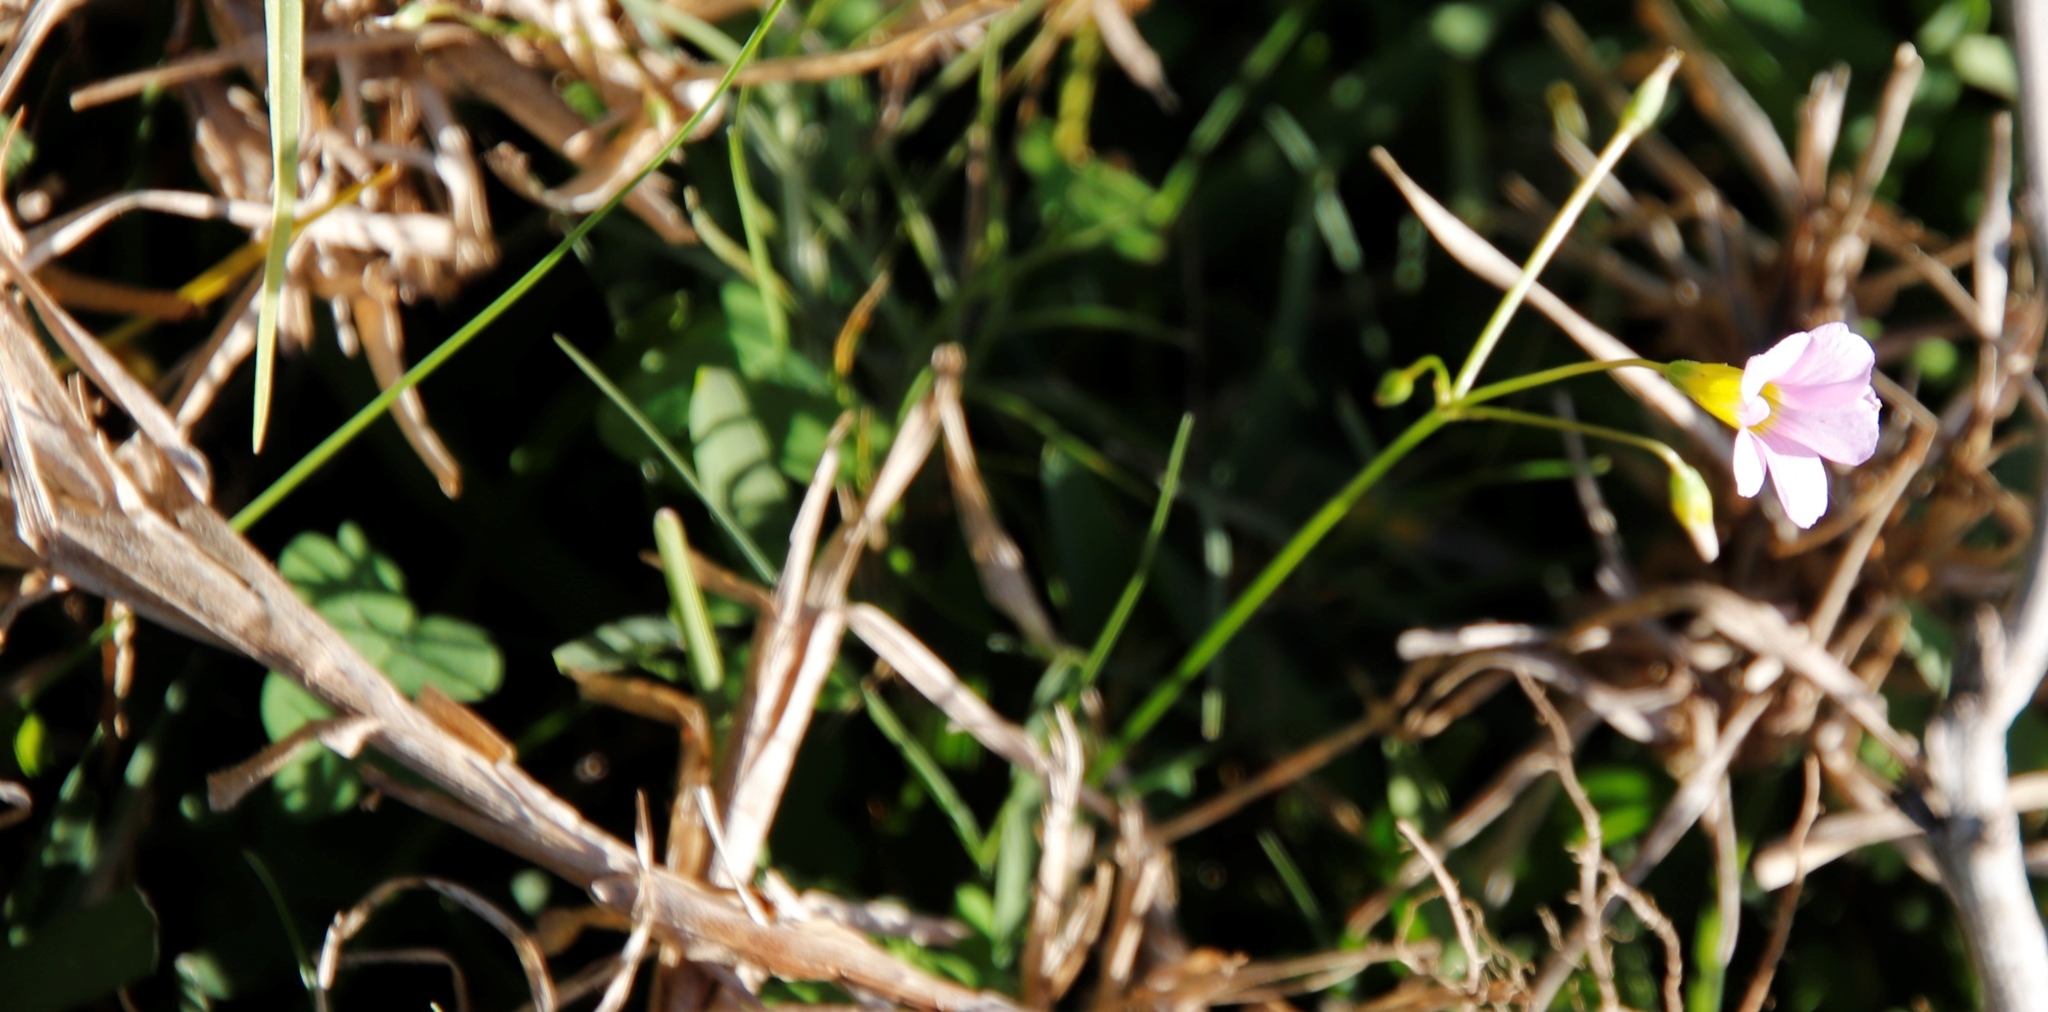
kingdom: Plantae
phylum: Tracheophyta
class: Magnoliopsida
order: Oxalidales
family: Oxalidaceae
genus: Oxalis
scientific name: Oxalis caprina
